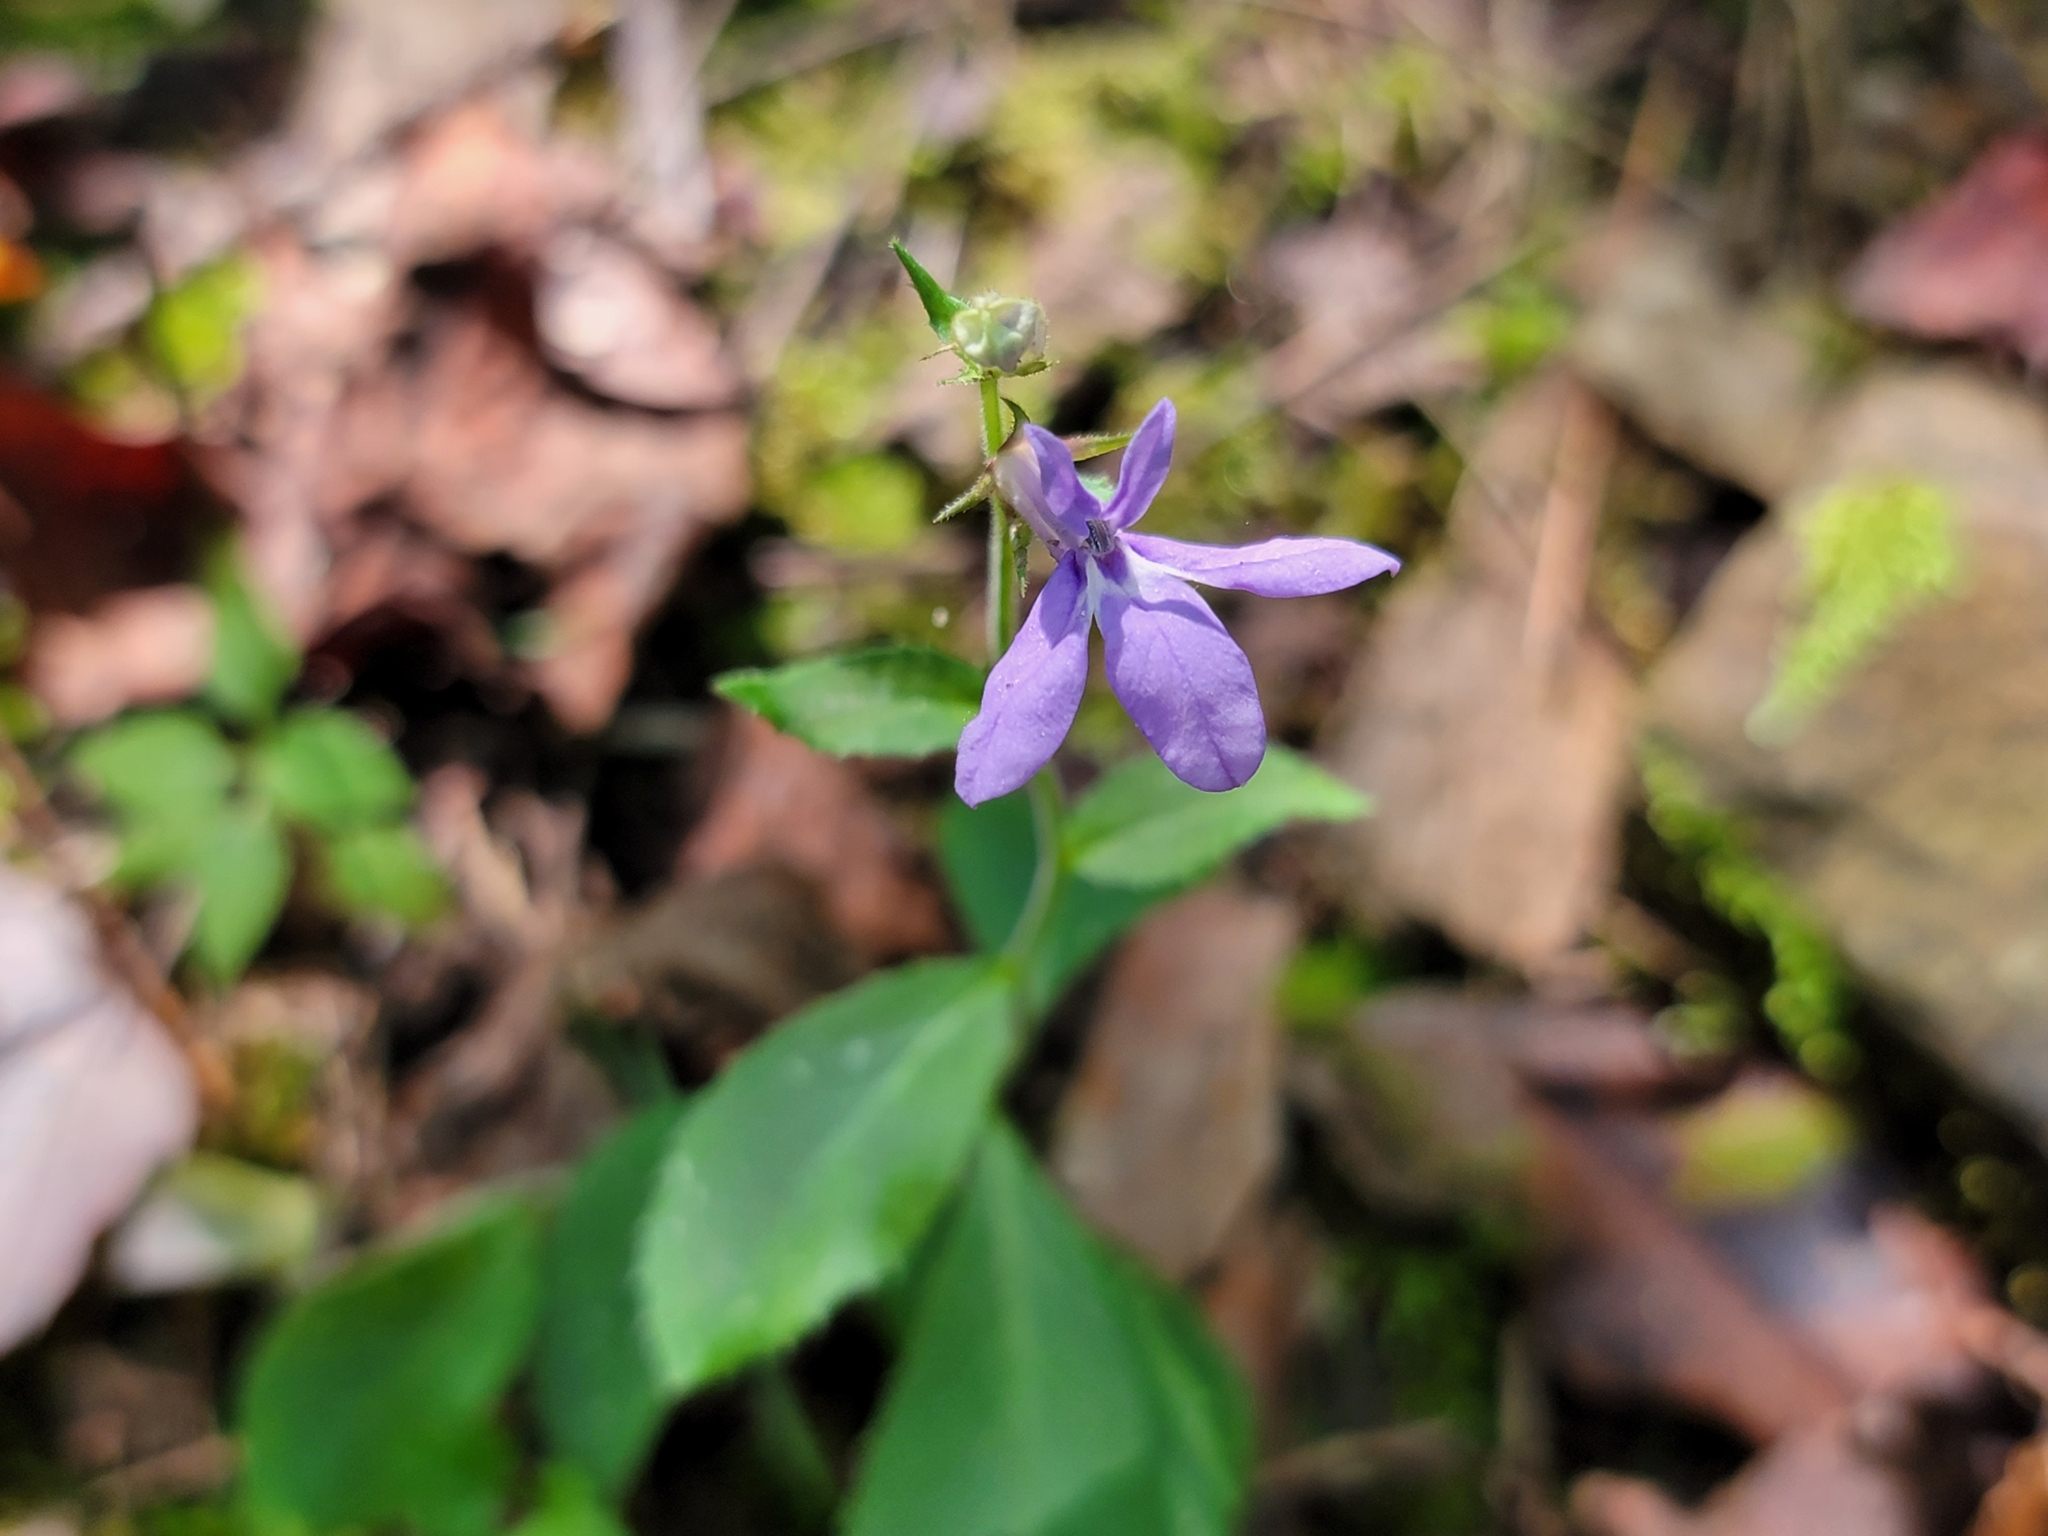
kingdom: Plantae
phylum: Tracheophyta
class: Magnoliopsida
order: Asterales
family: Campanulaceae
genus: Lobelia
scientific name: Lobelia puberula
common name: Purple dewdrop
